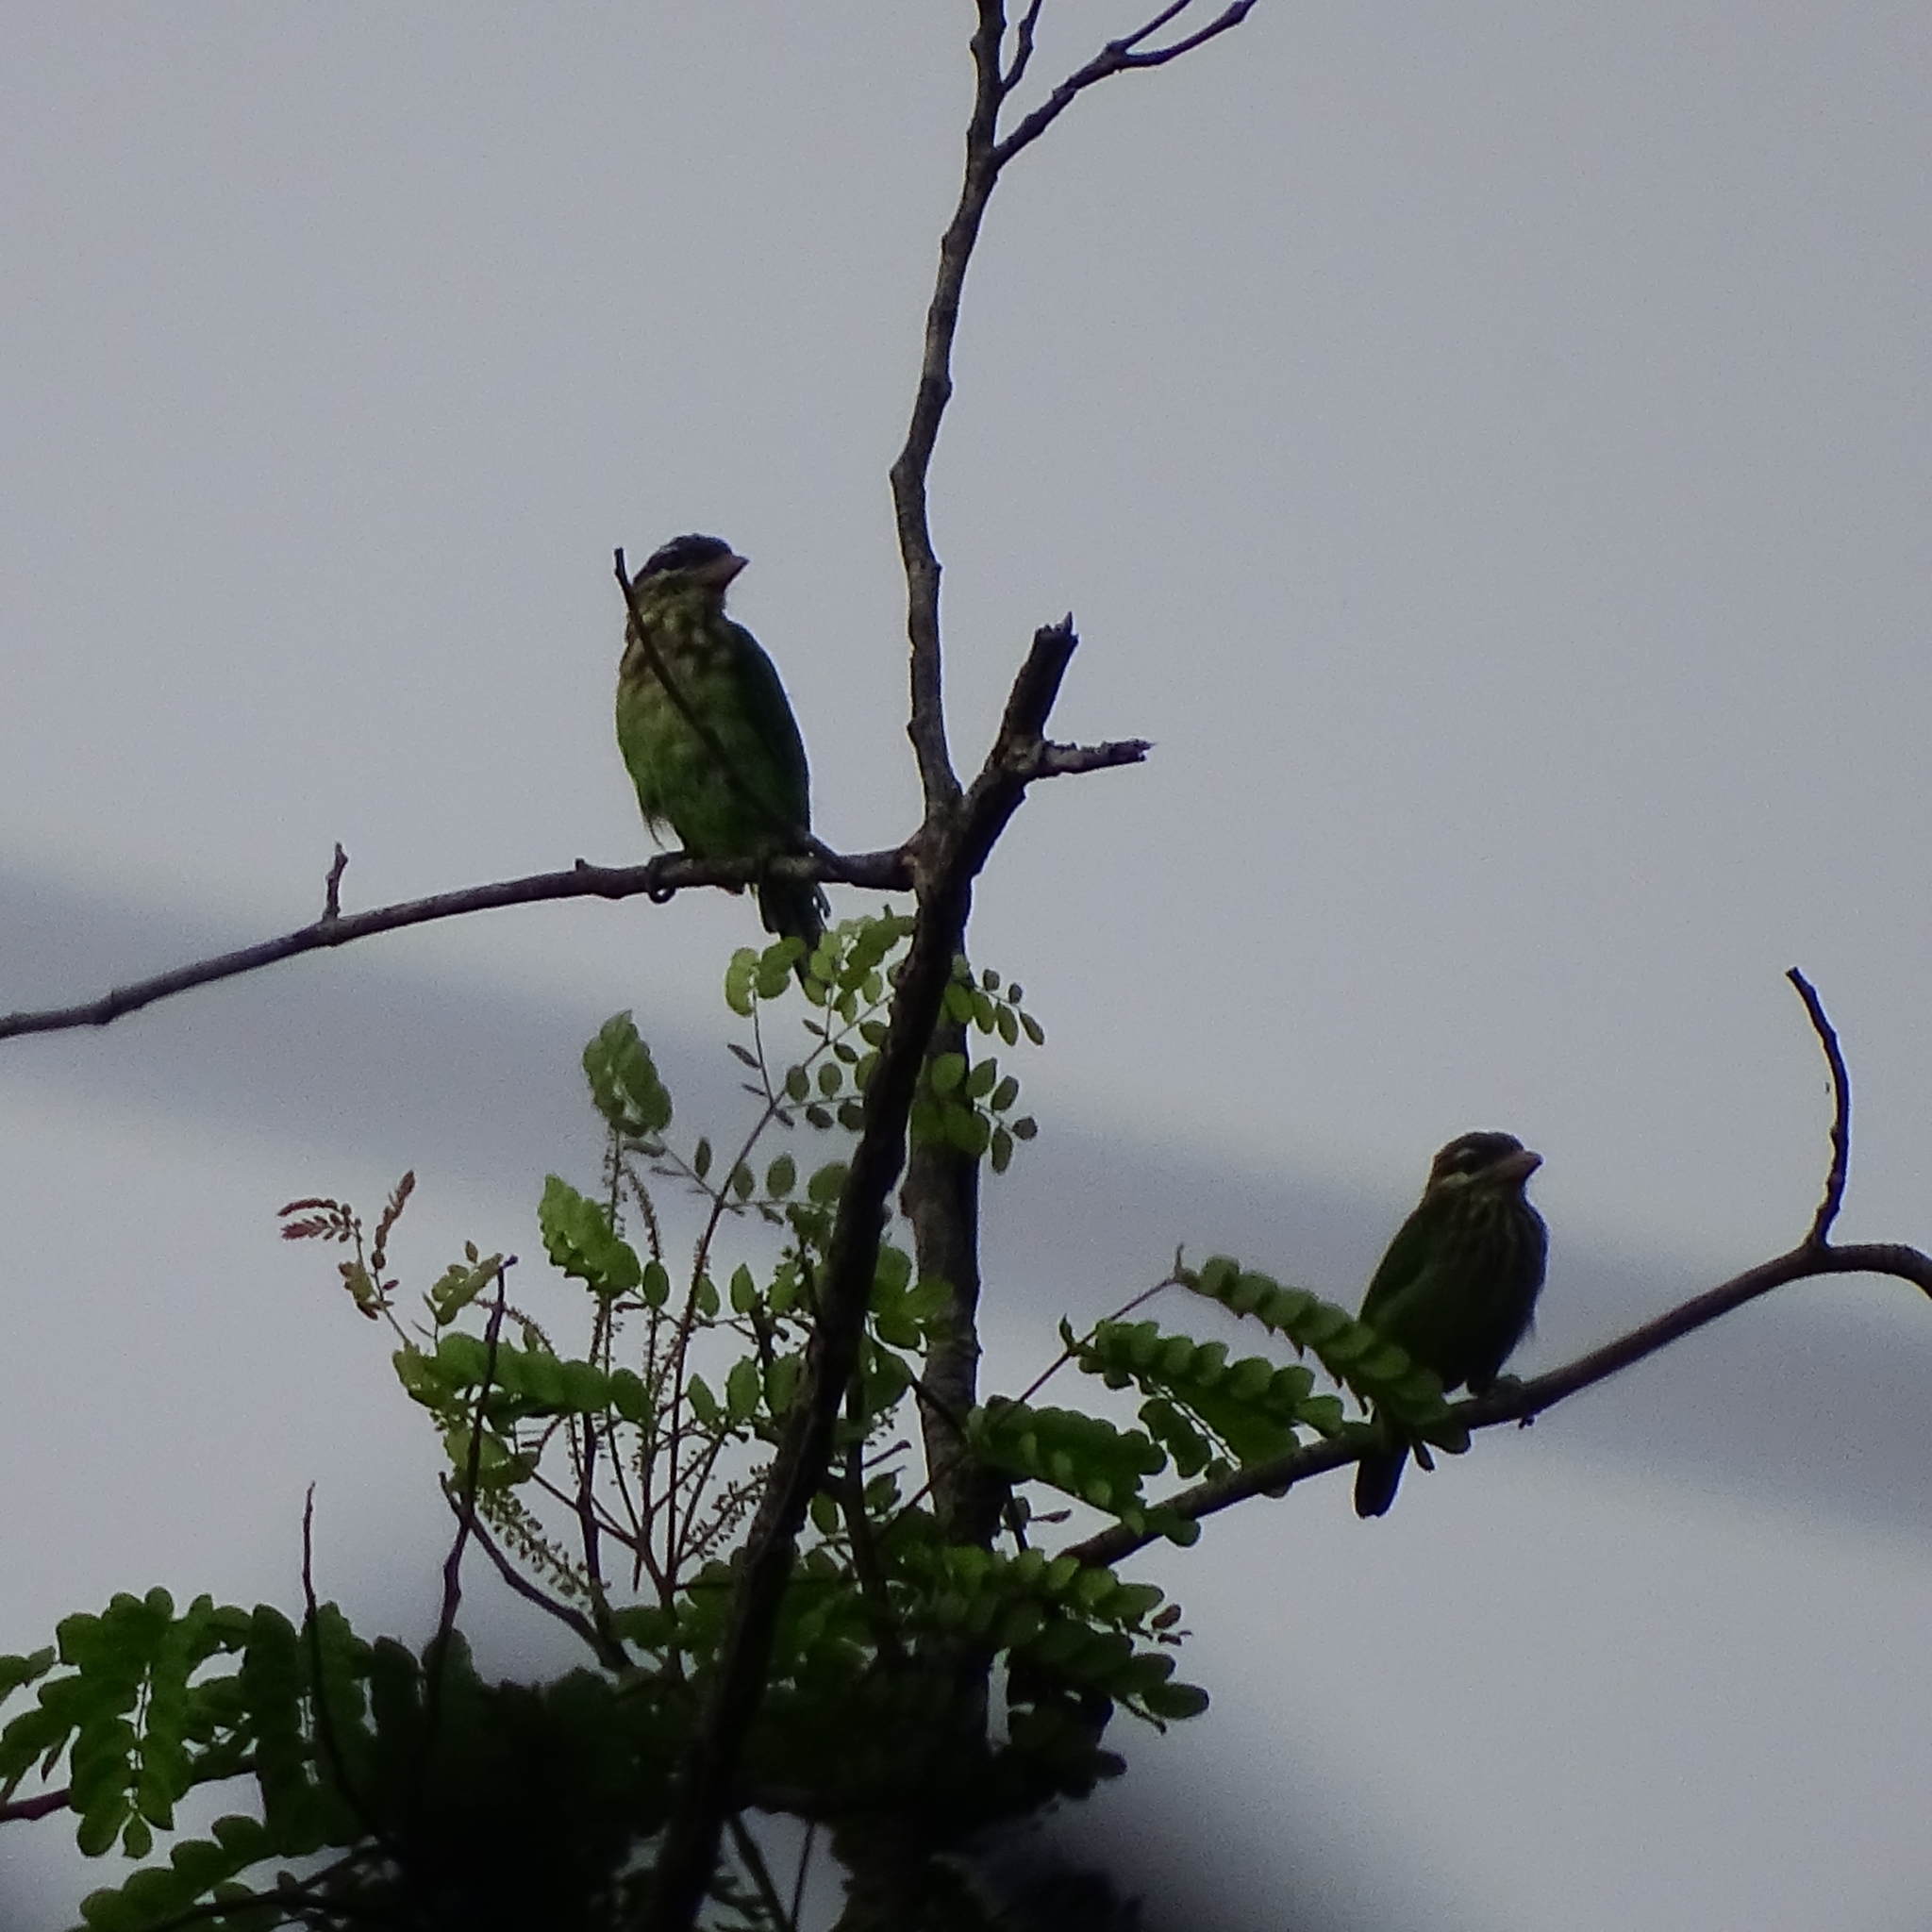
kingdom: Animalia
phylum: Chordata
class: Aves
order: Piciformes
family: Megalaimidae
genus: Psilopogon
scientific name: Psilopogon viridis
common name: White-cheeked barbet
